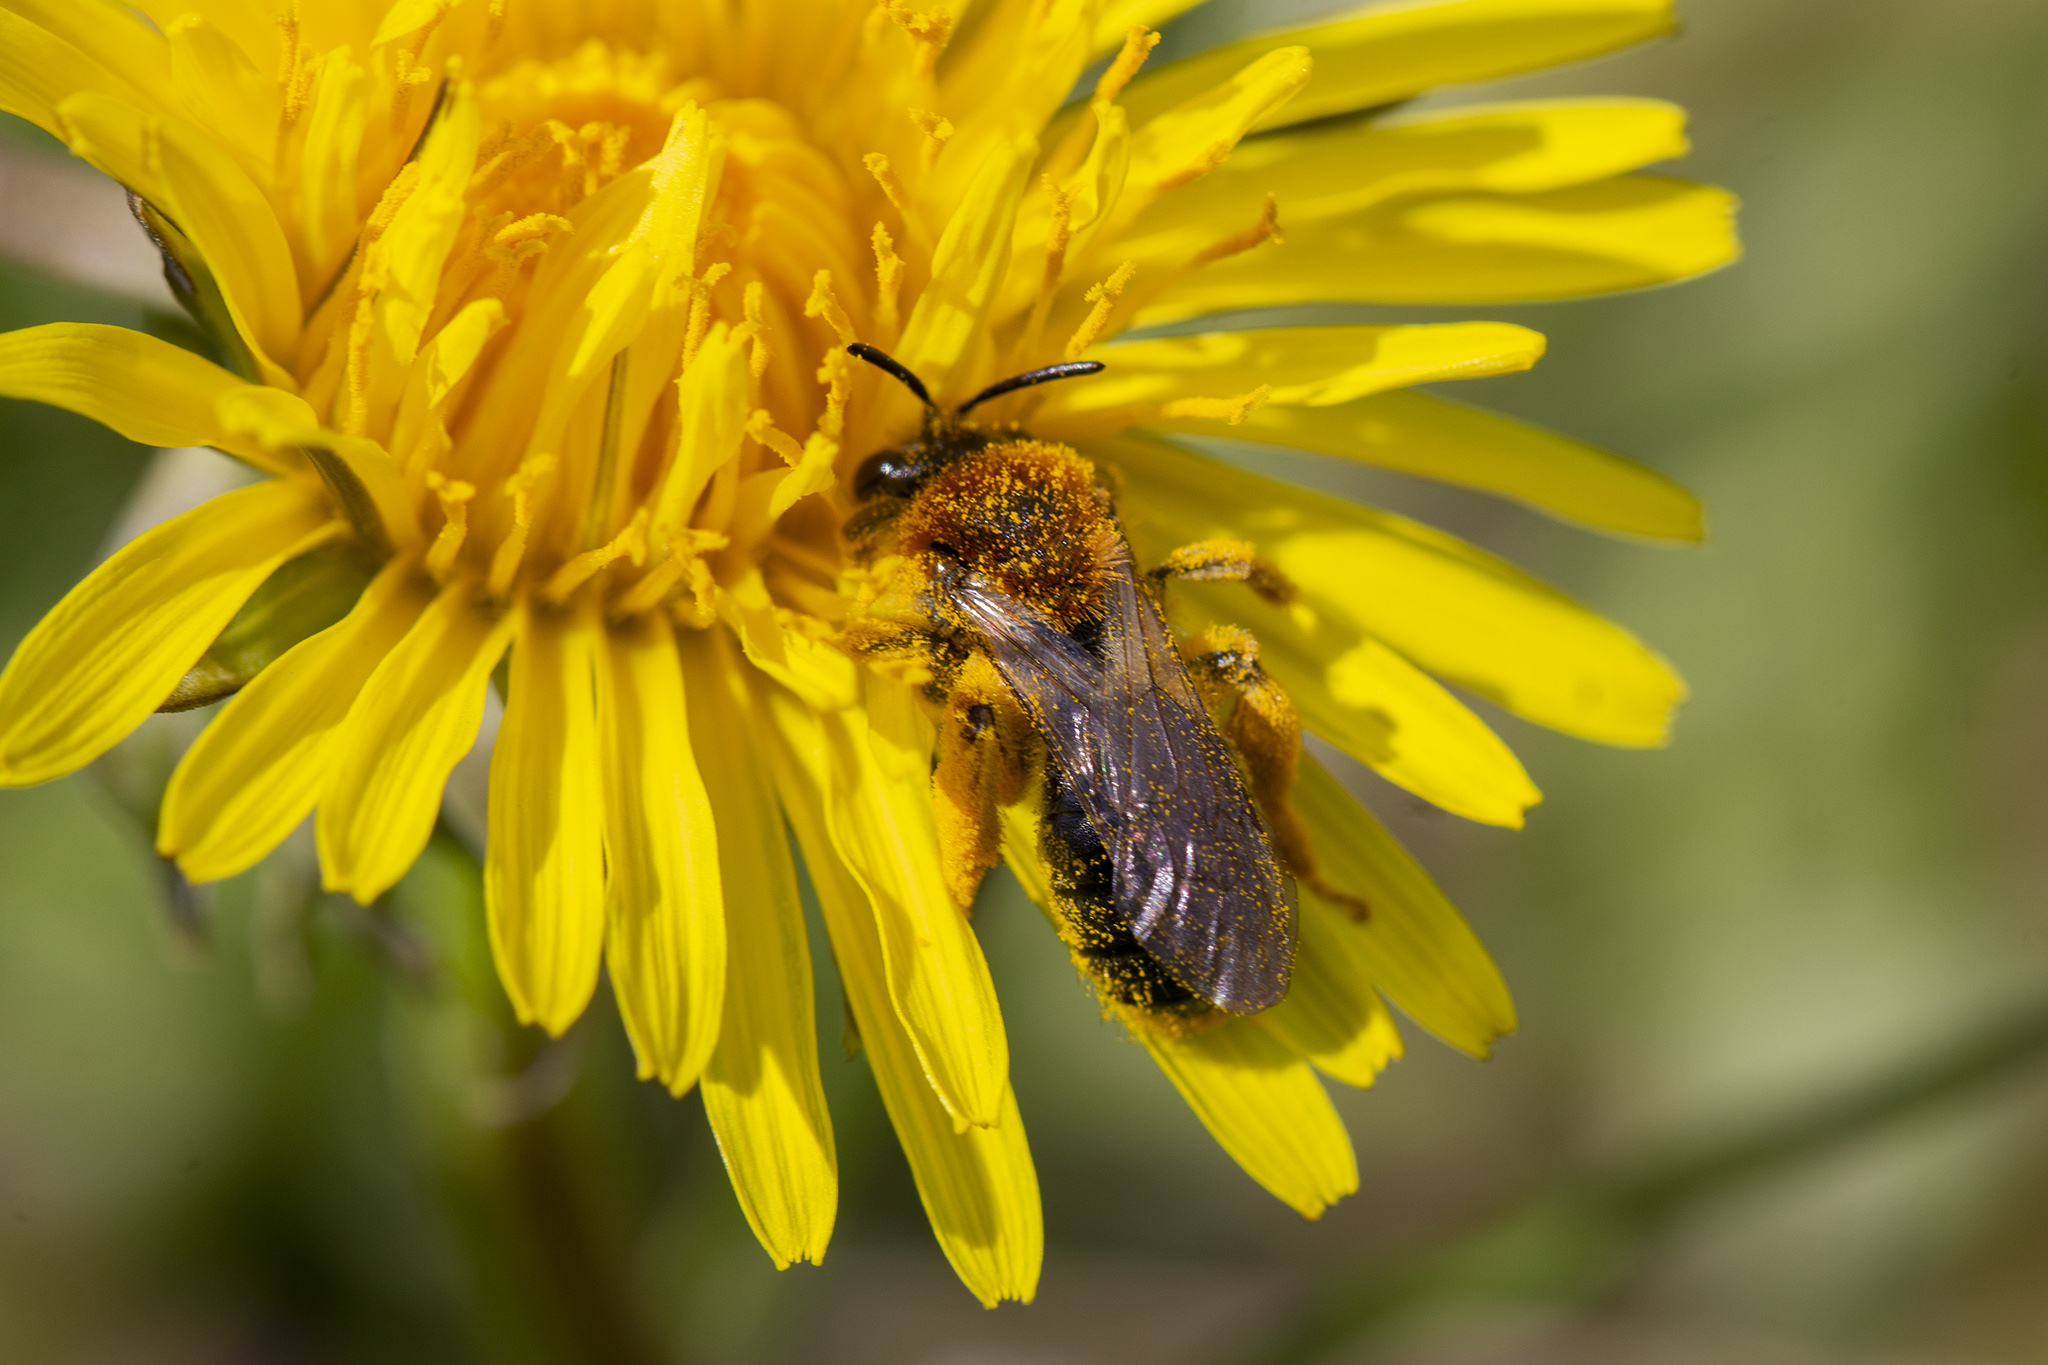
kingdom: Animalia
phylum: Arthropoda
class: Insecta
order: Hymenoptera
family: Andrenidae
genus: Andrena
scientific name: Andrena haemorrhoa
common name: Early mining bee
